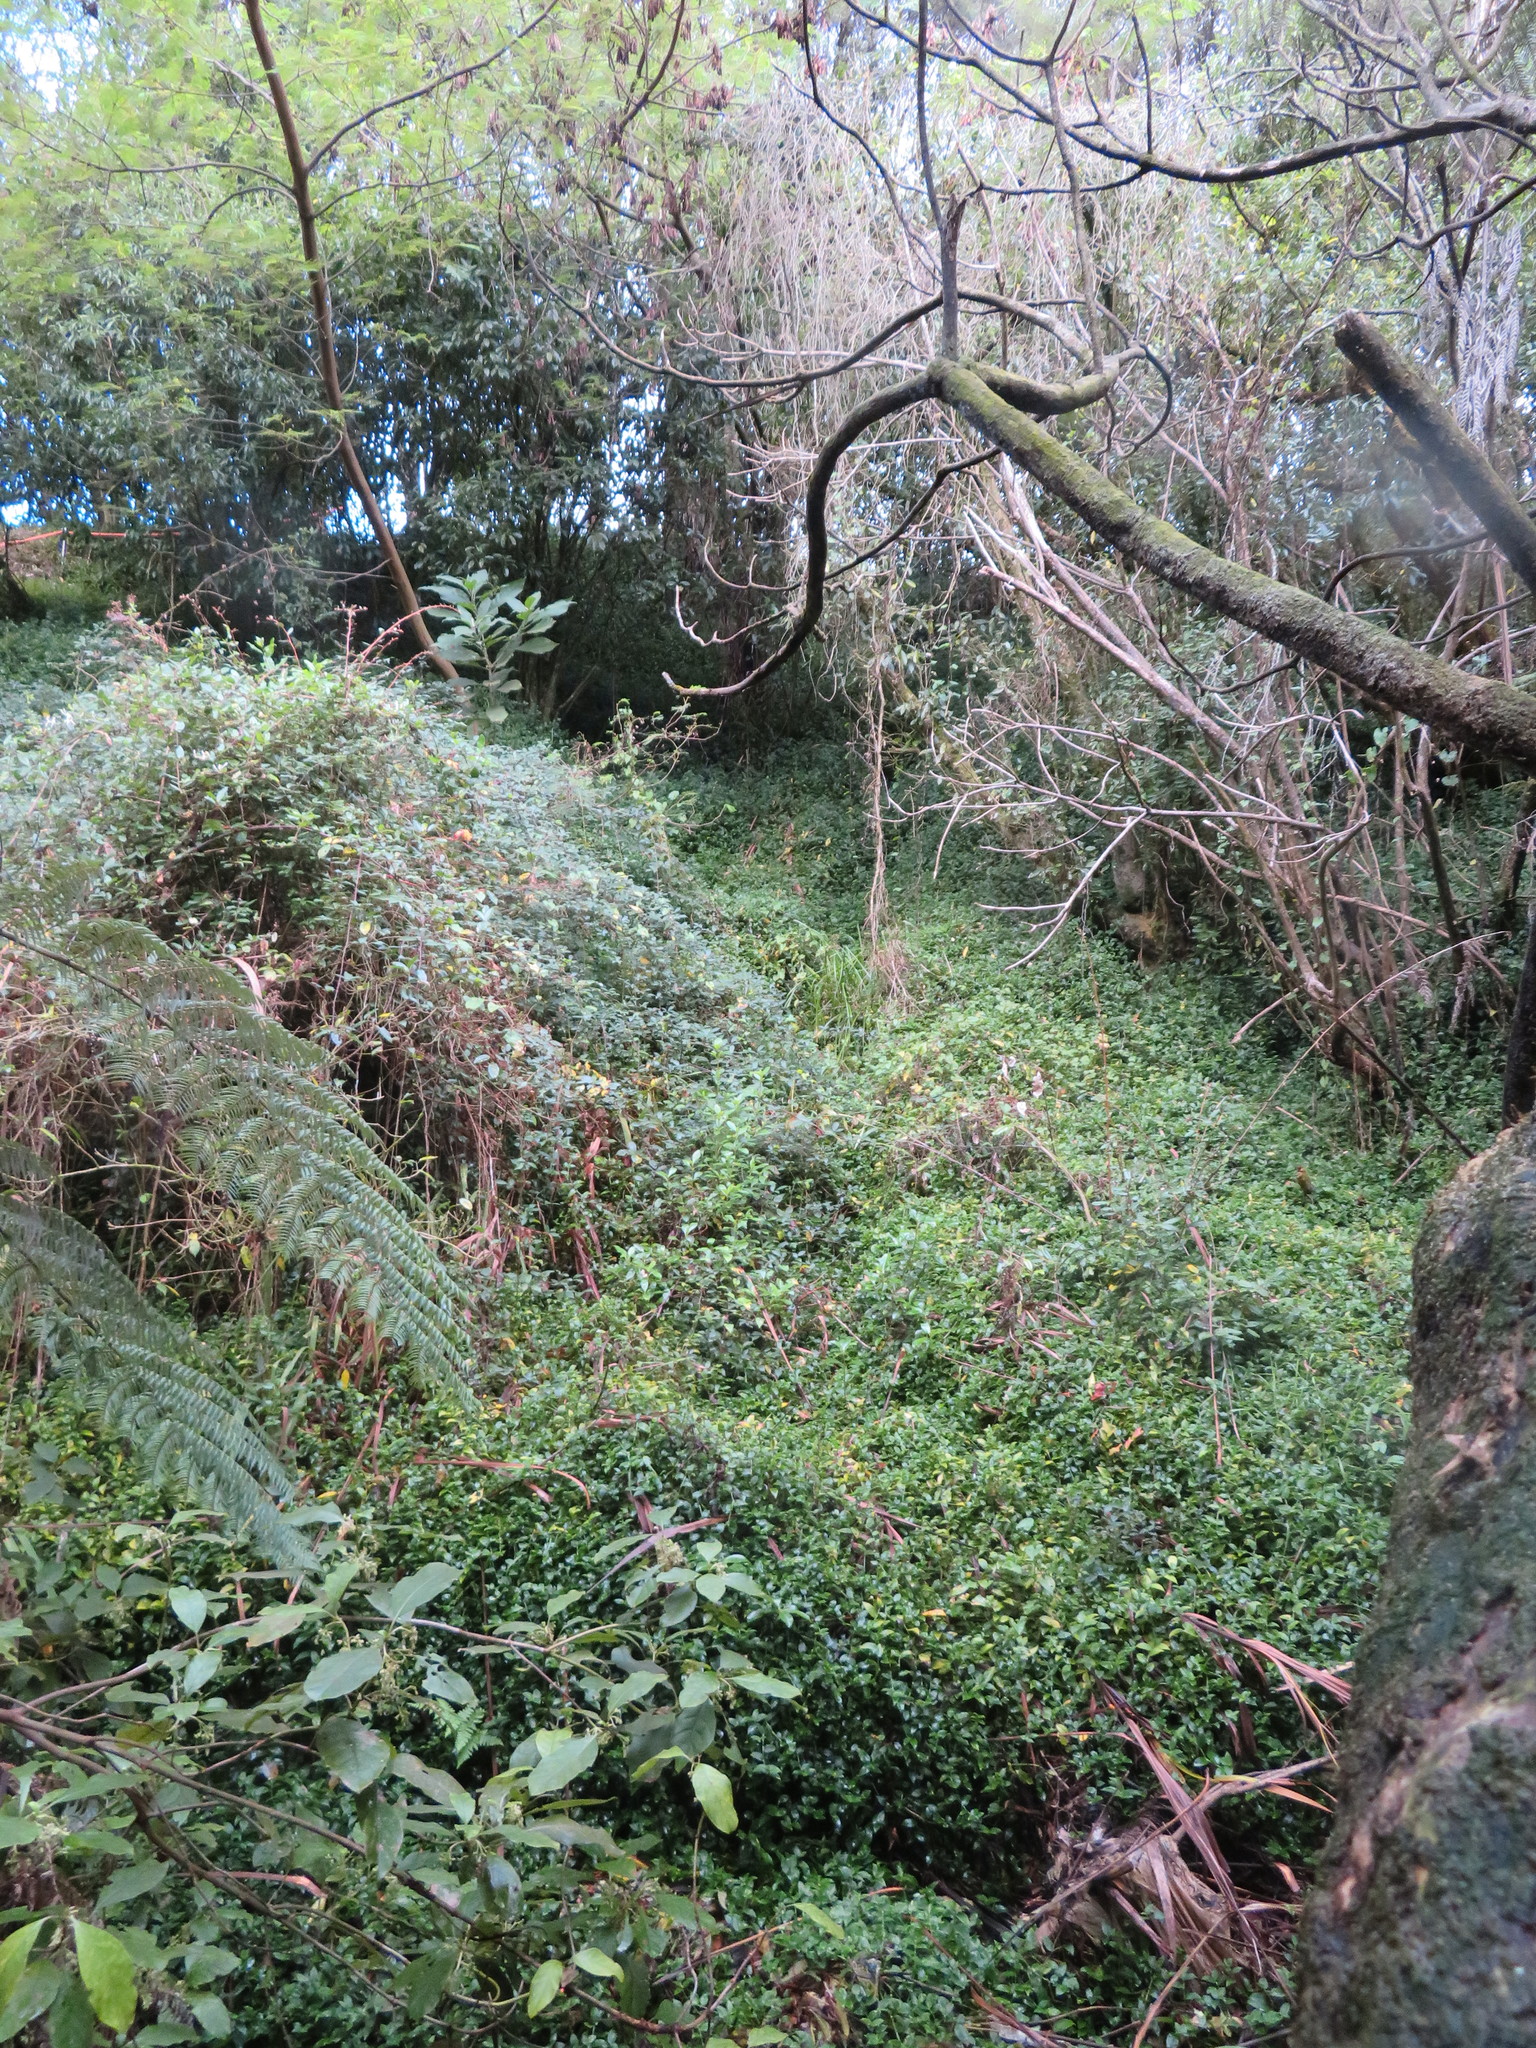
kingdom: Plantae
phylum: Tracheophyta
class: Magnoliopsida
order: Caryophyllales
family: Basellaceae
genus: Anredera
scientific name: Anredera cordifolia
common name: Heartleaf madeiravine
